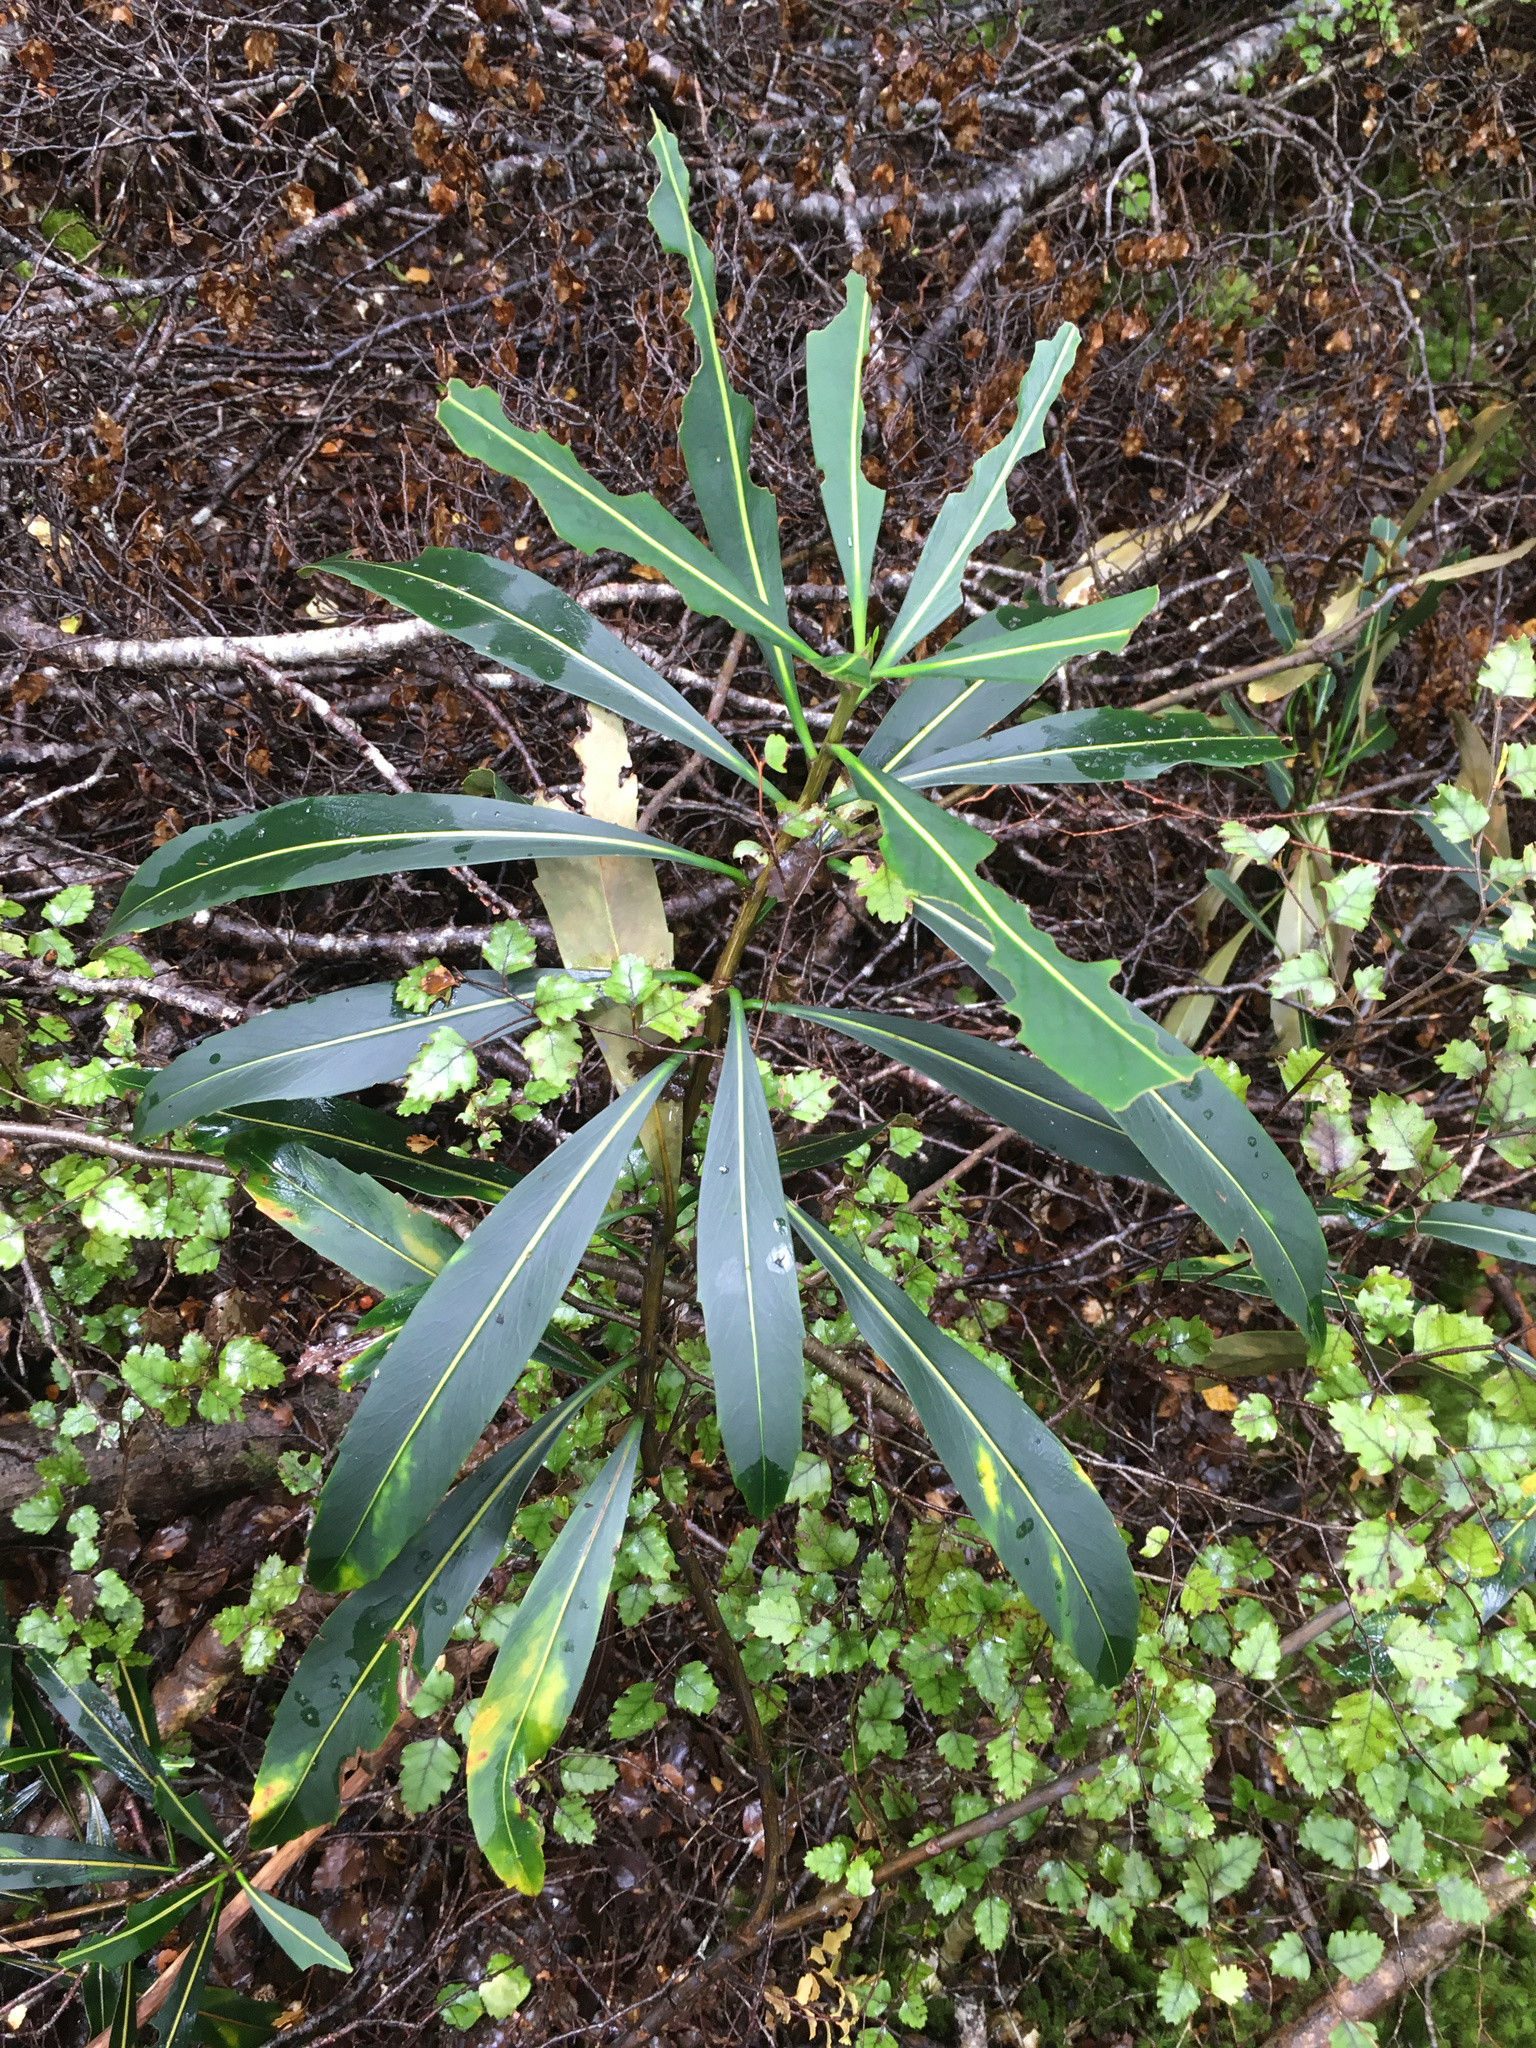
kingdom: Plantae
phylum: Tracheophyta
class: Magnoliopsida
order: Apiales
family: Araliaceae
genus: Pseudopanax
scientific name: Pseudopanax crassifolius
